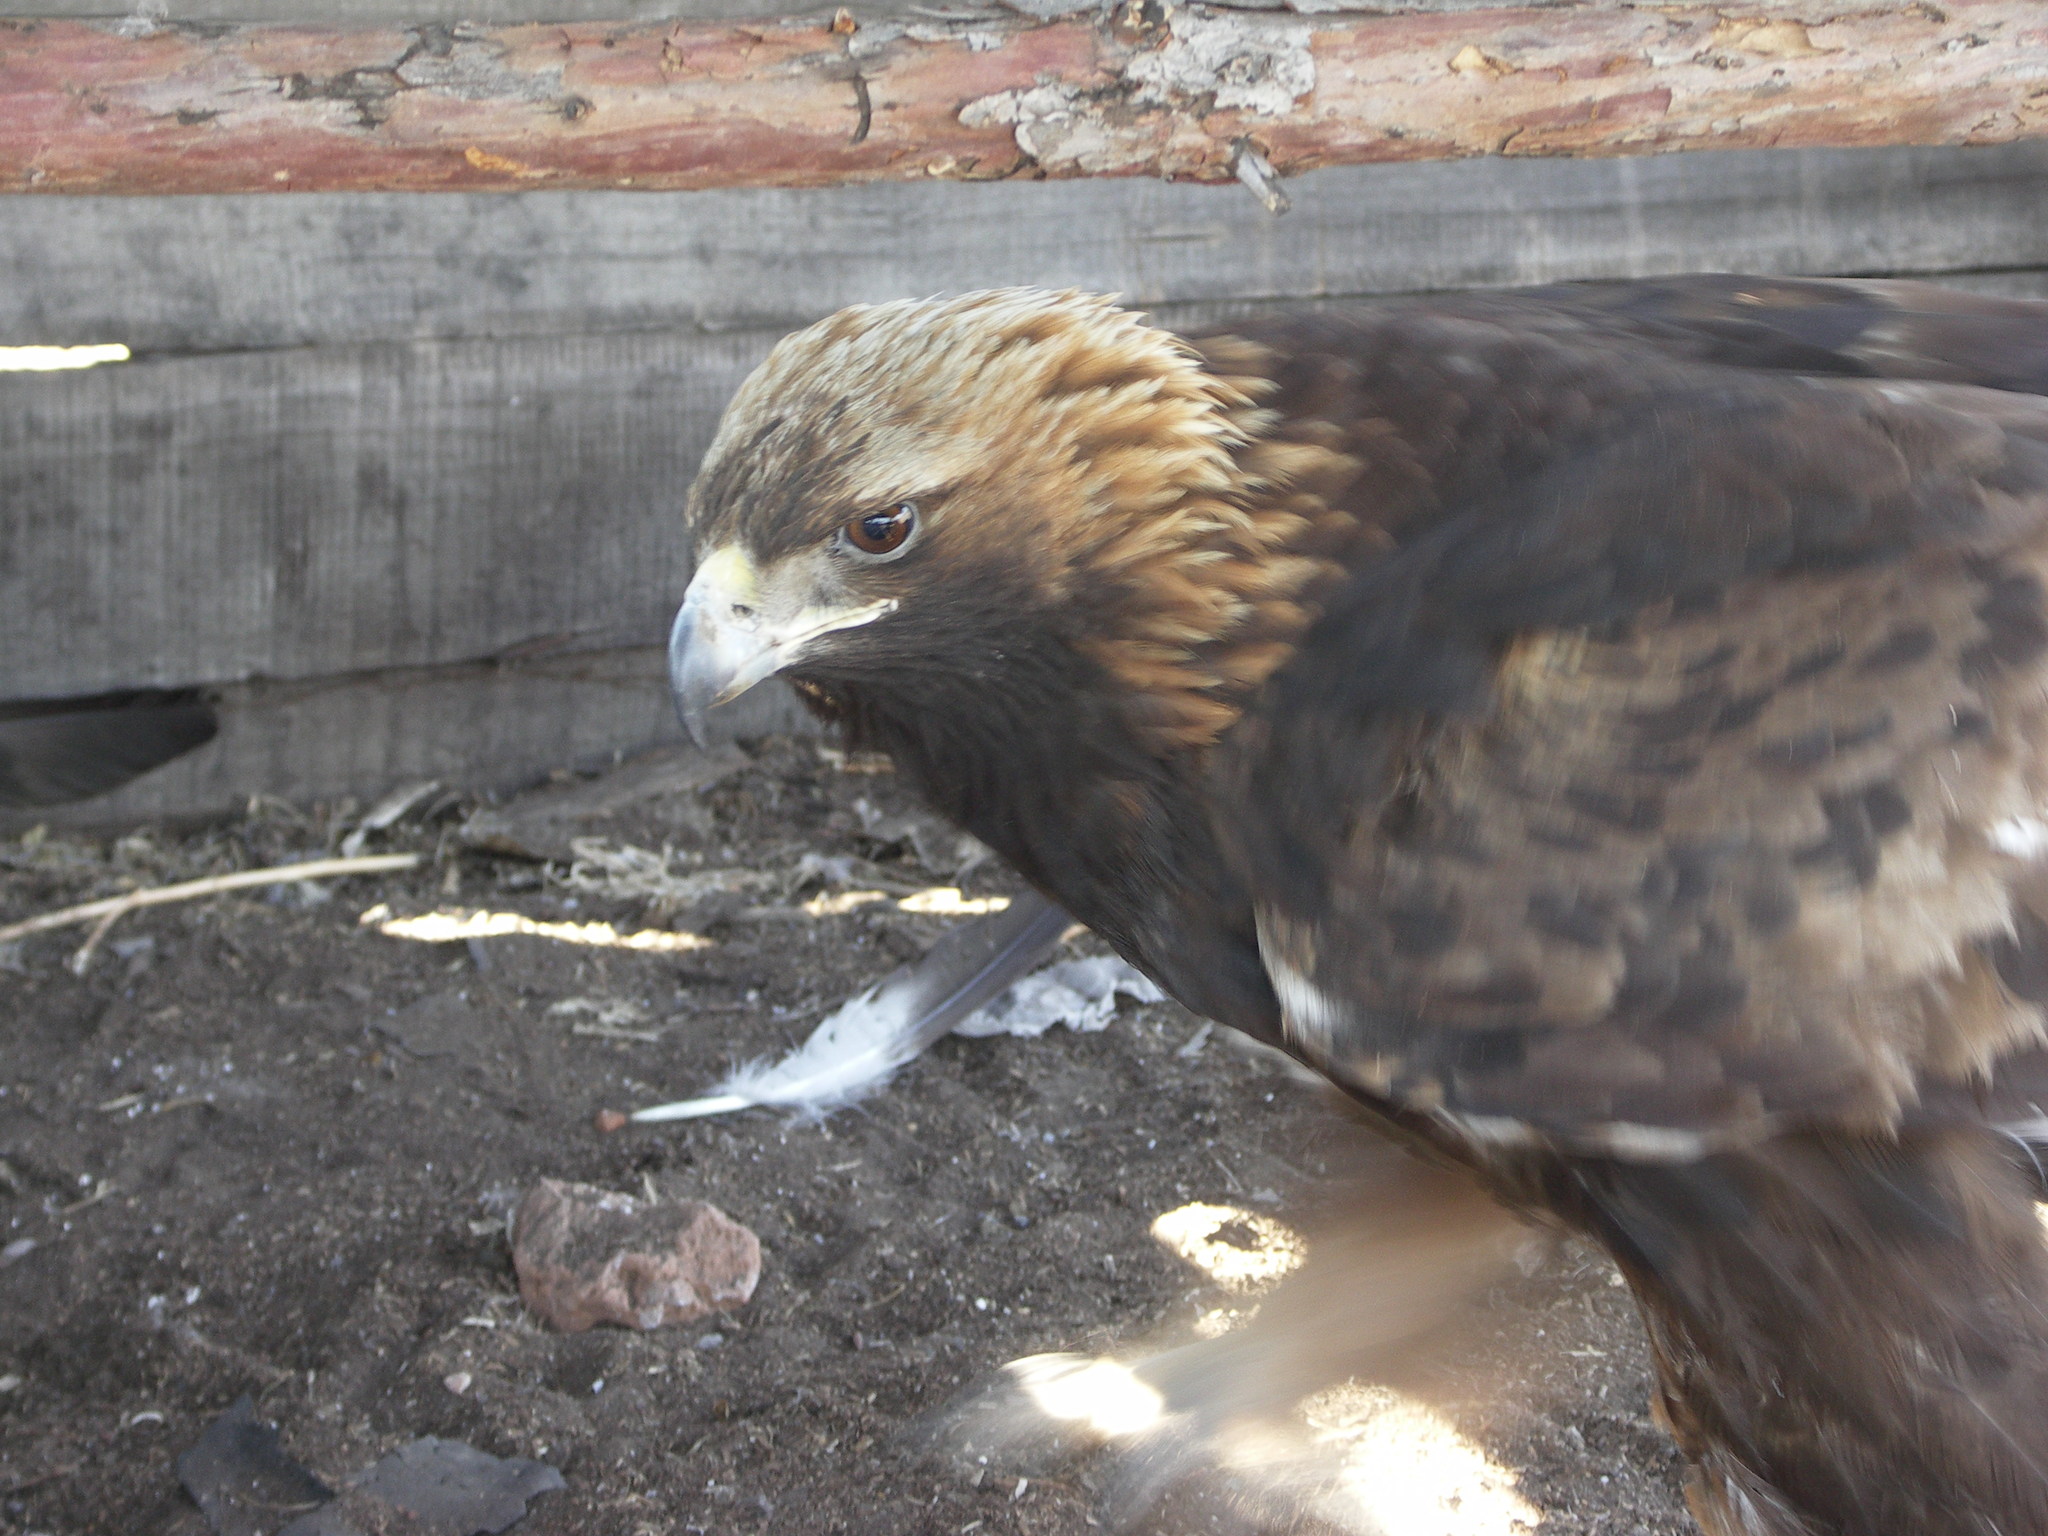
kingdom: Animalia
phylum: Chordata
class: Aves
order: Accipitriformes
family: Accipitridae
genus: Aquila
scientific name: Aquila chrysaetos
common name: Golden eagle
